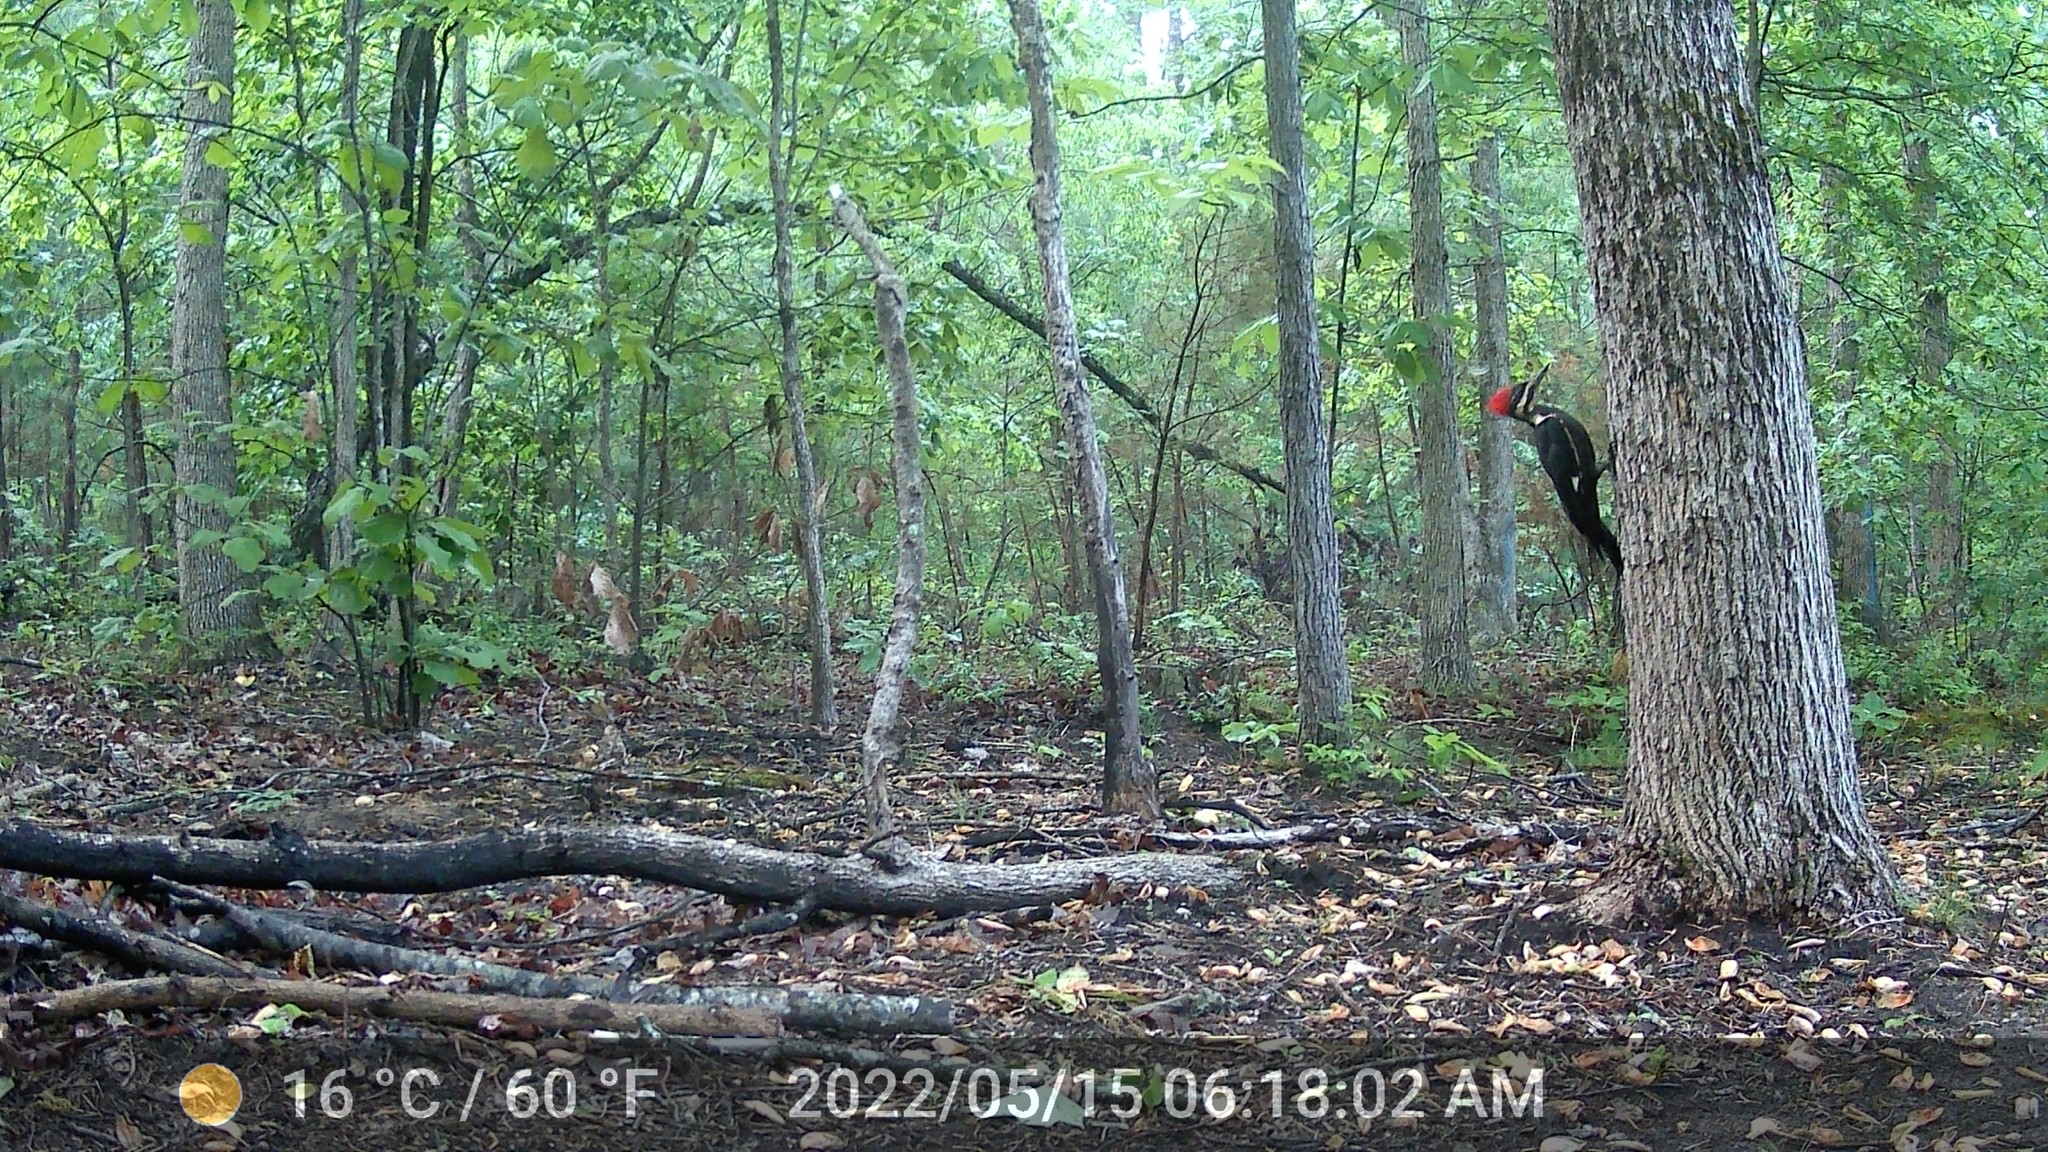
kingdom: Animalia
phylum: Chordata
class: Aves
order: Piciformes
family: Picidae
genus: Dryocopus
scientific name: Dryocopus pileatus
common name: Pileated woodpecker
